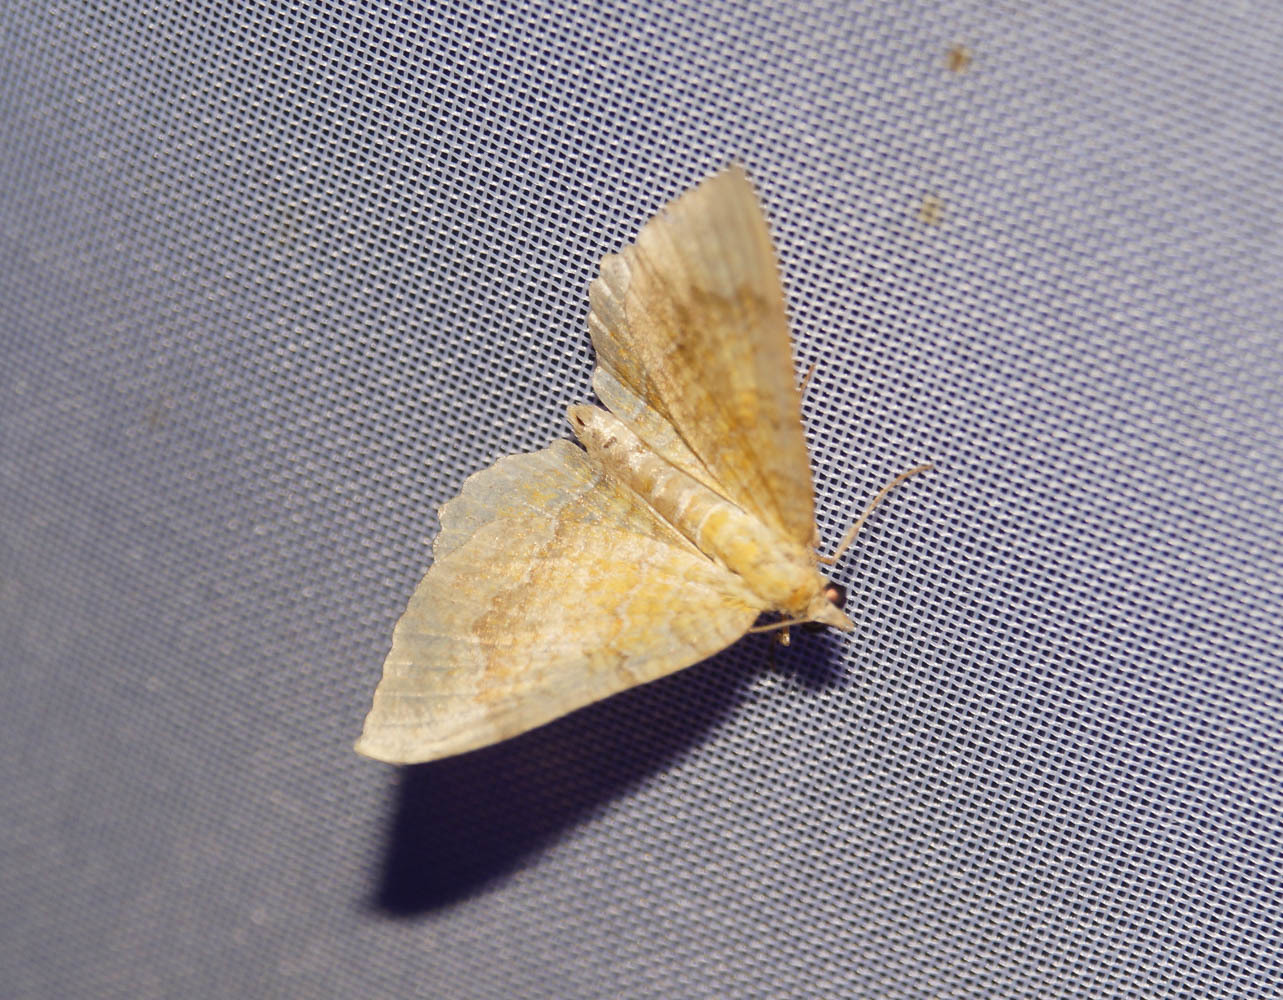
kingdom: Animalia
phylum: Arthropoda
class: Insecta
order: Lepidoptera
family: Geometridae
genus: Camptogramma
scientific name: Camptogramma bilineata
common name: Yellow shell
